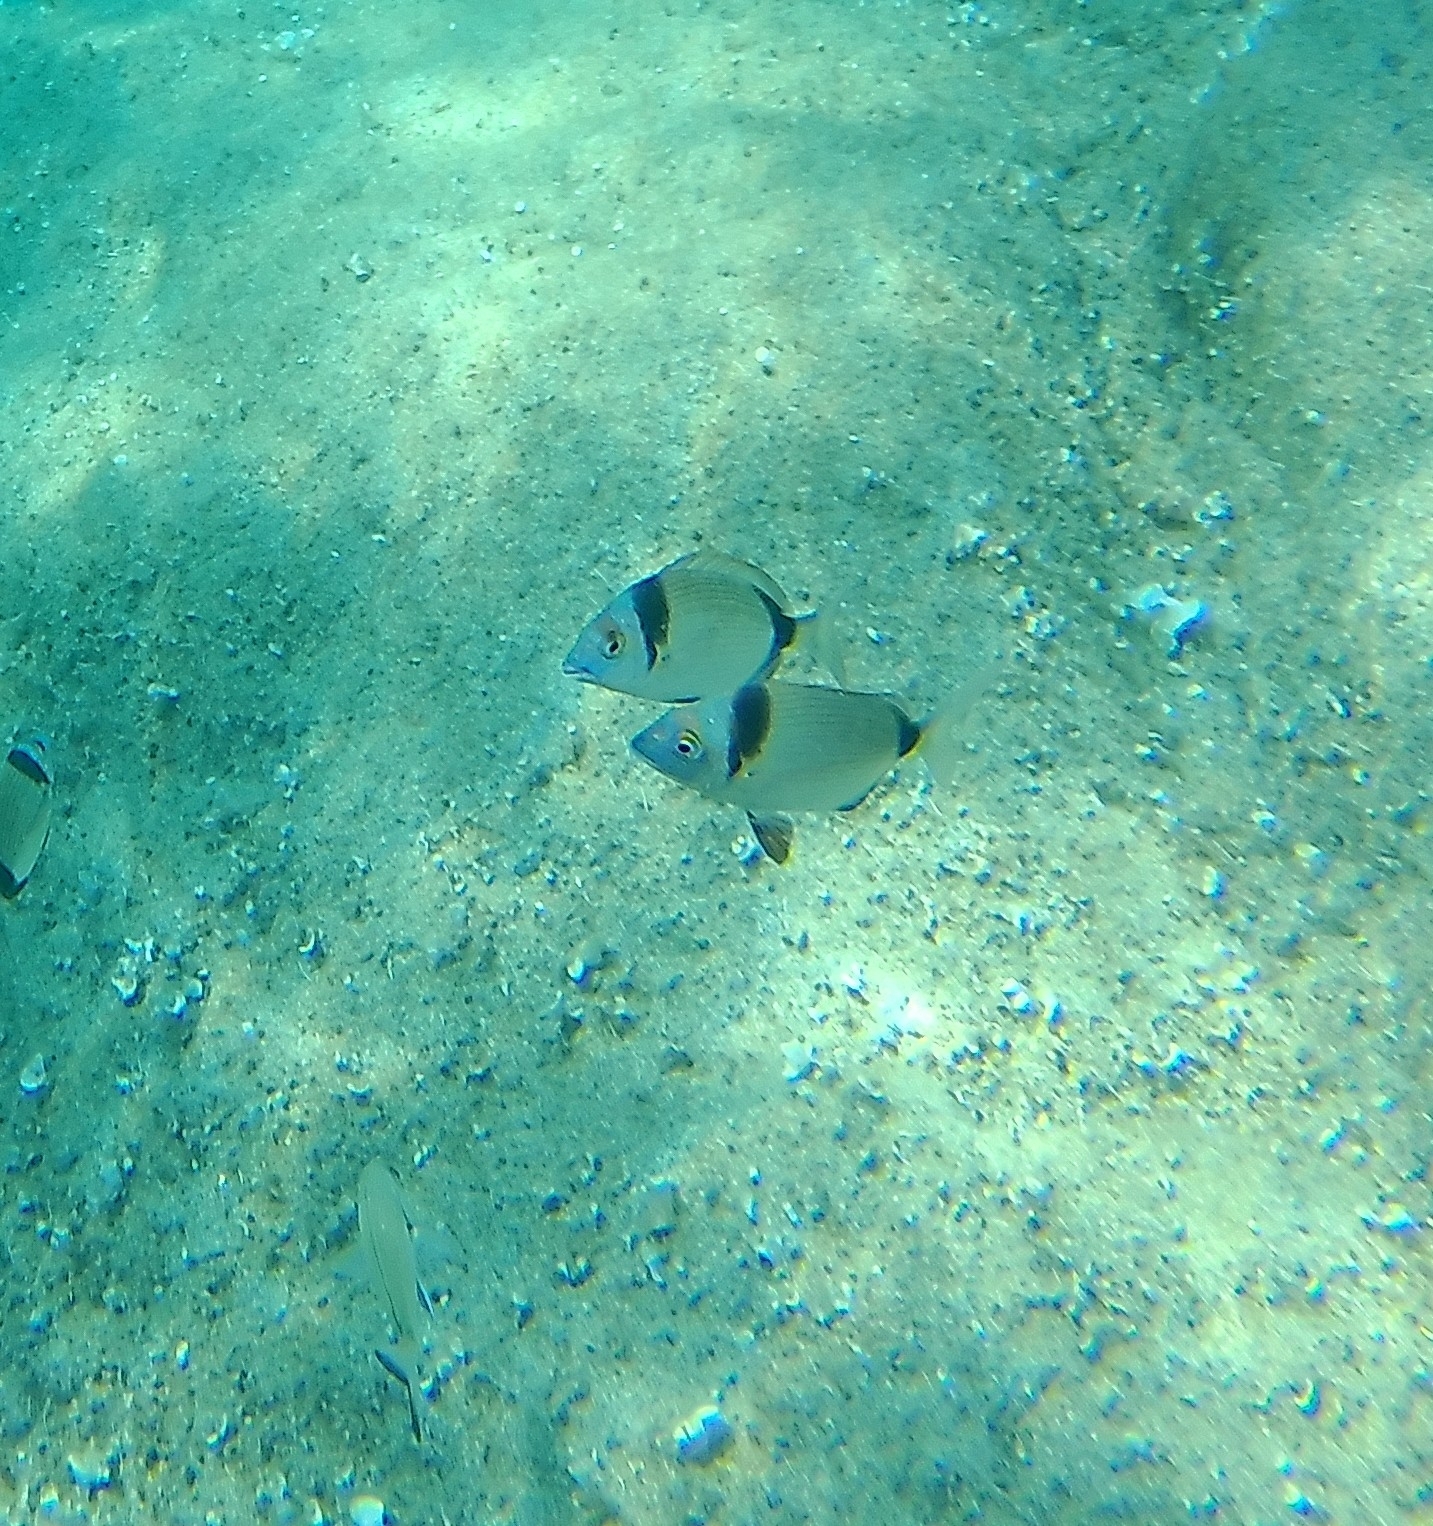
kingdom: Animalia
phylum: Chordata
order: Perciformes
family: Sparidae
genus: Diplodus
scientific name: Diplodus vulgaris
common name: Common two-banded seabream
